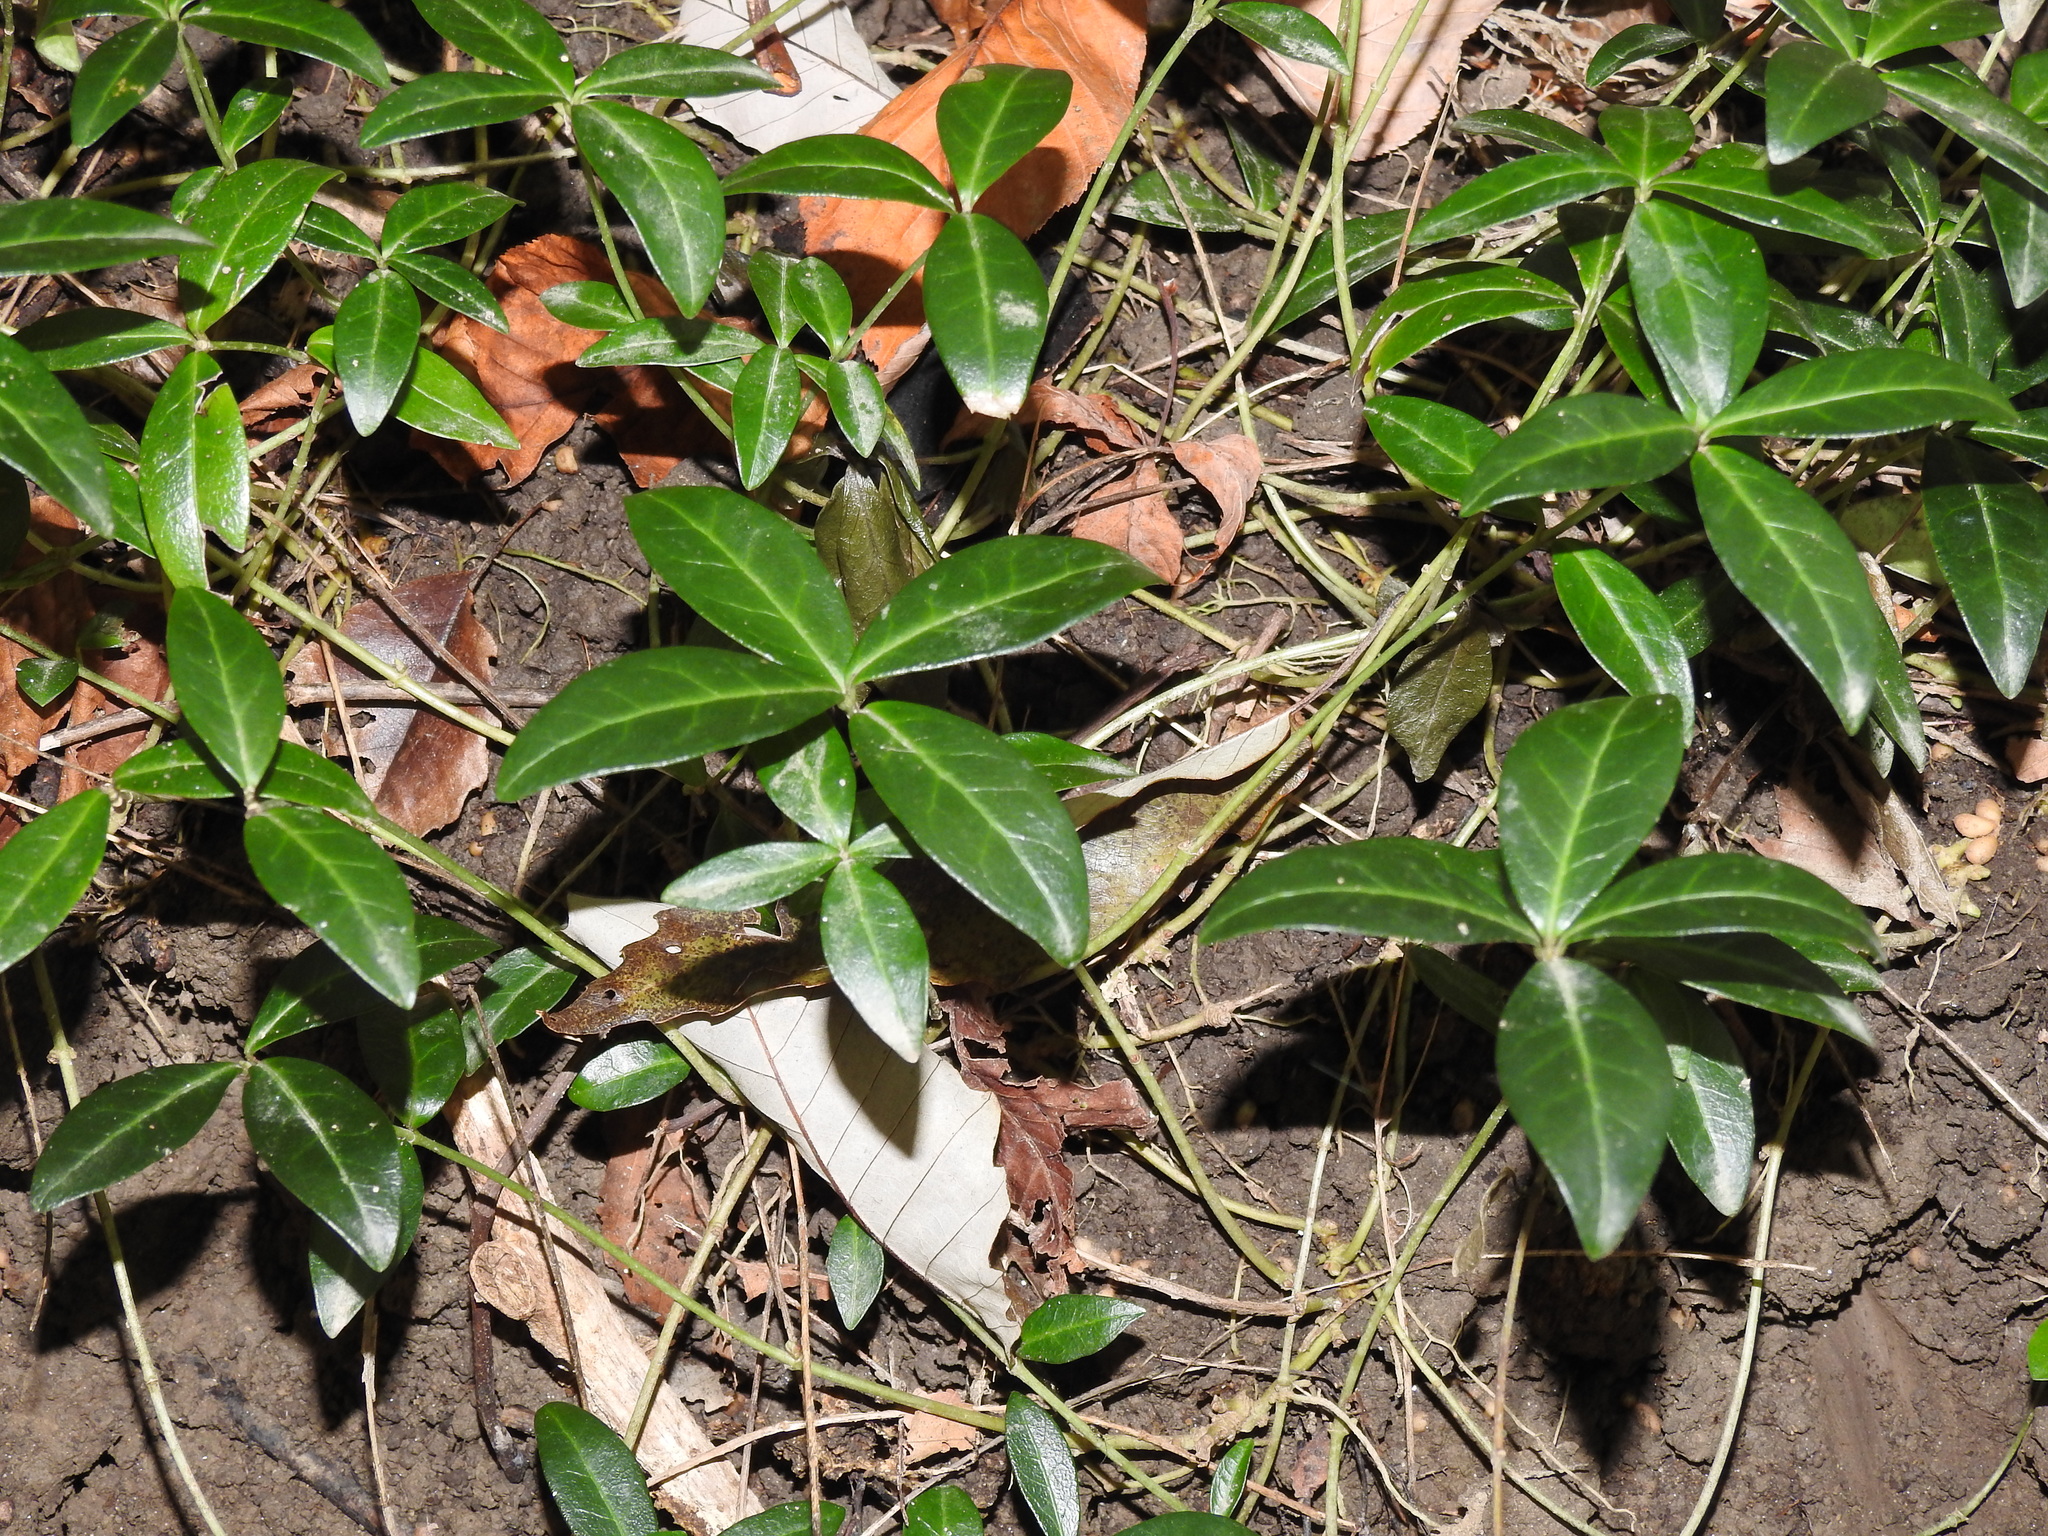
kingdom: Plantae
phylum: Tracheophyta
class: Magnoliopsida
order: Gentianales
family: Apocynaceae
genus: Vinca
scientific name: Vinca minor
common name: Lesser periwinkle
